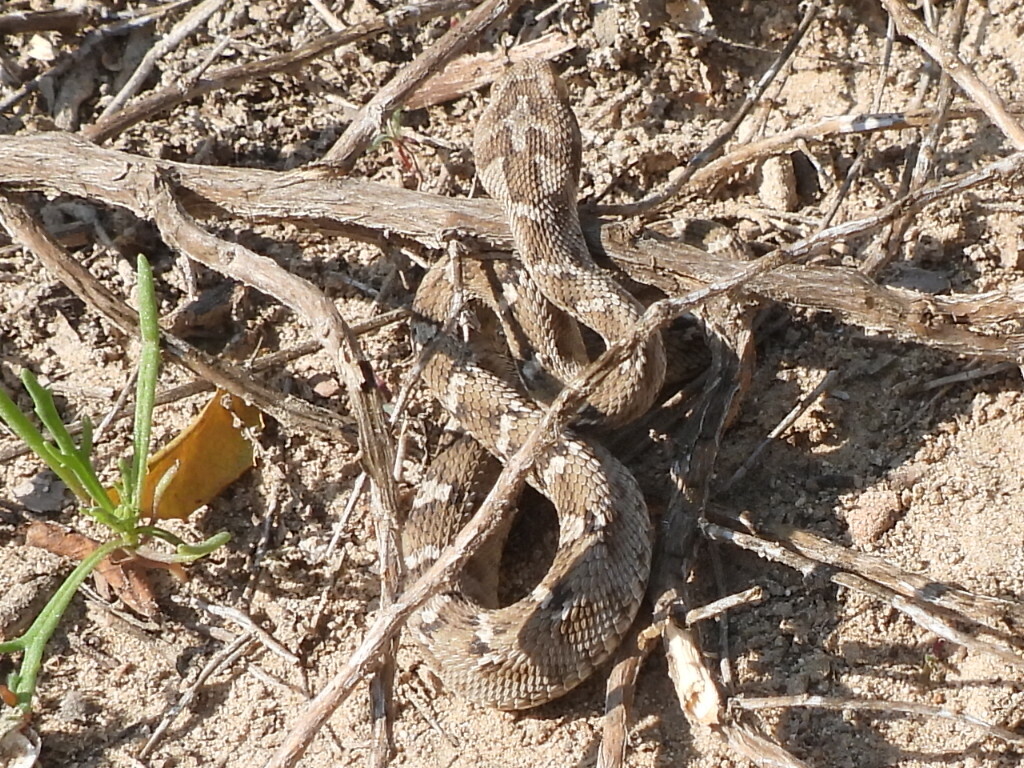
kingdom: Animalia
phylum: Chordata
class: Squamata
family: Viperidae
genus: Echis
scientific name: Echis carinatus
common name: Saw-scaled viper
